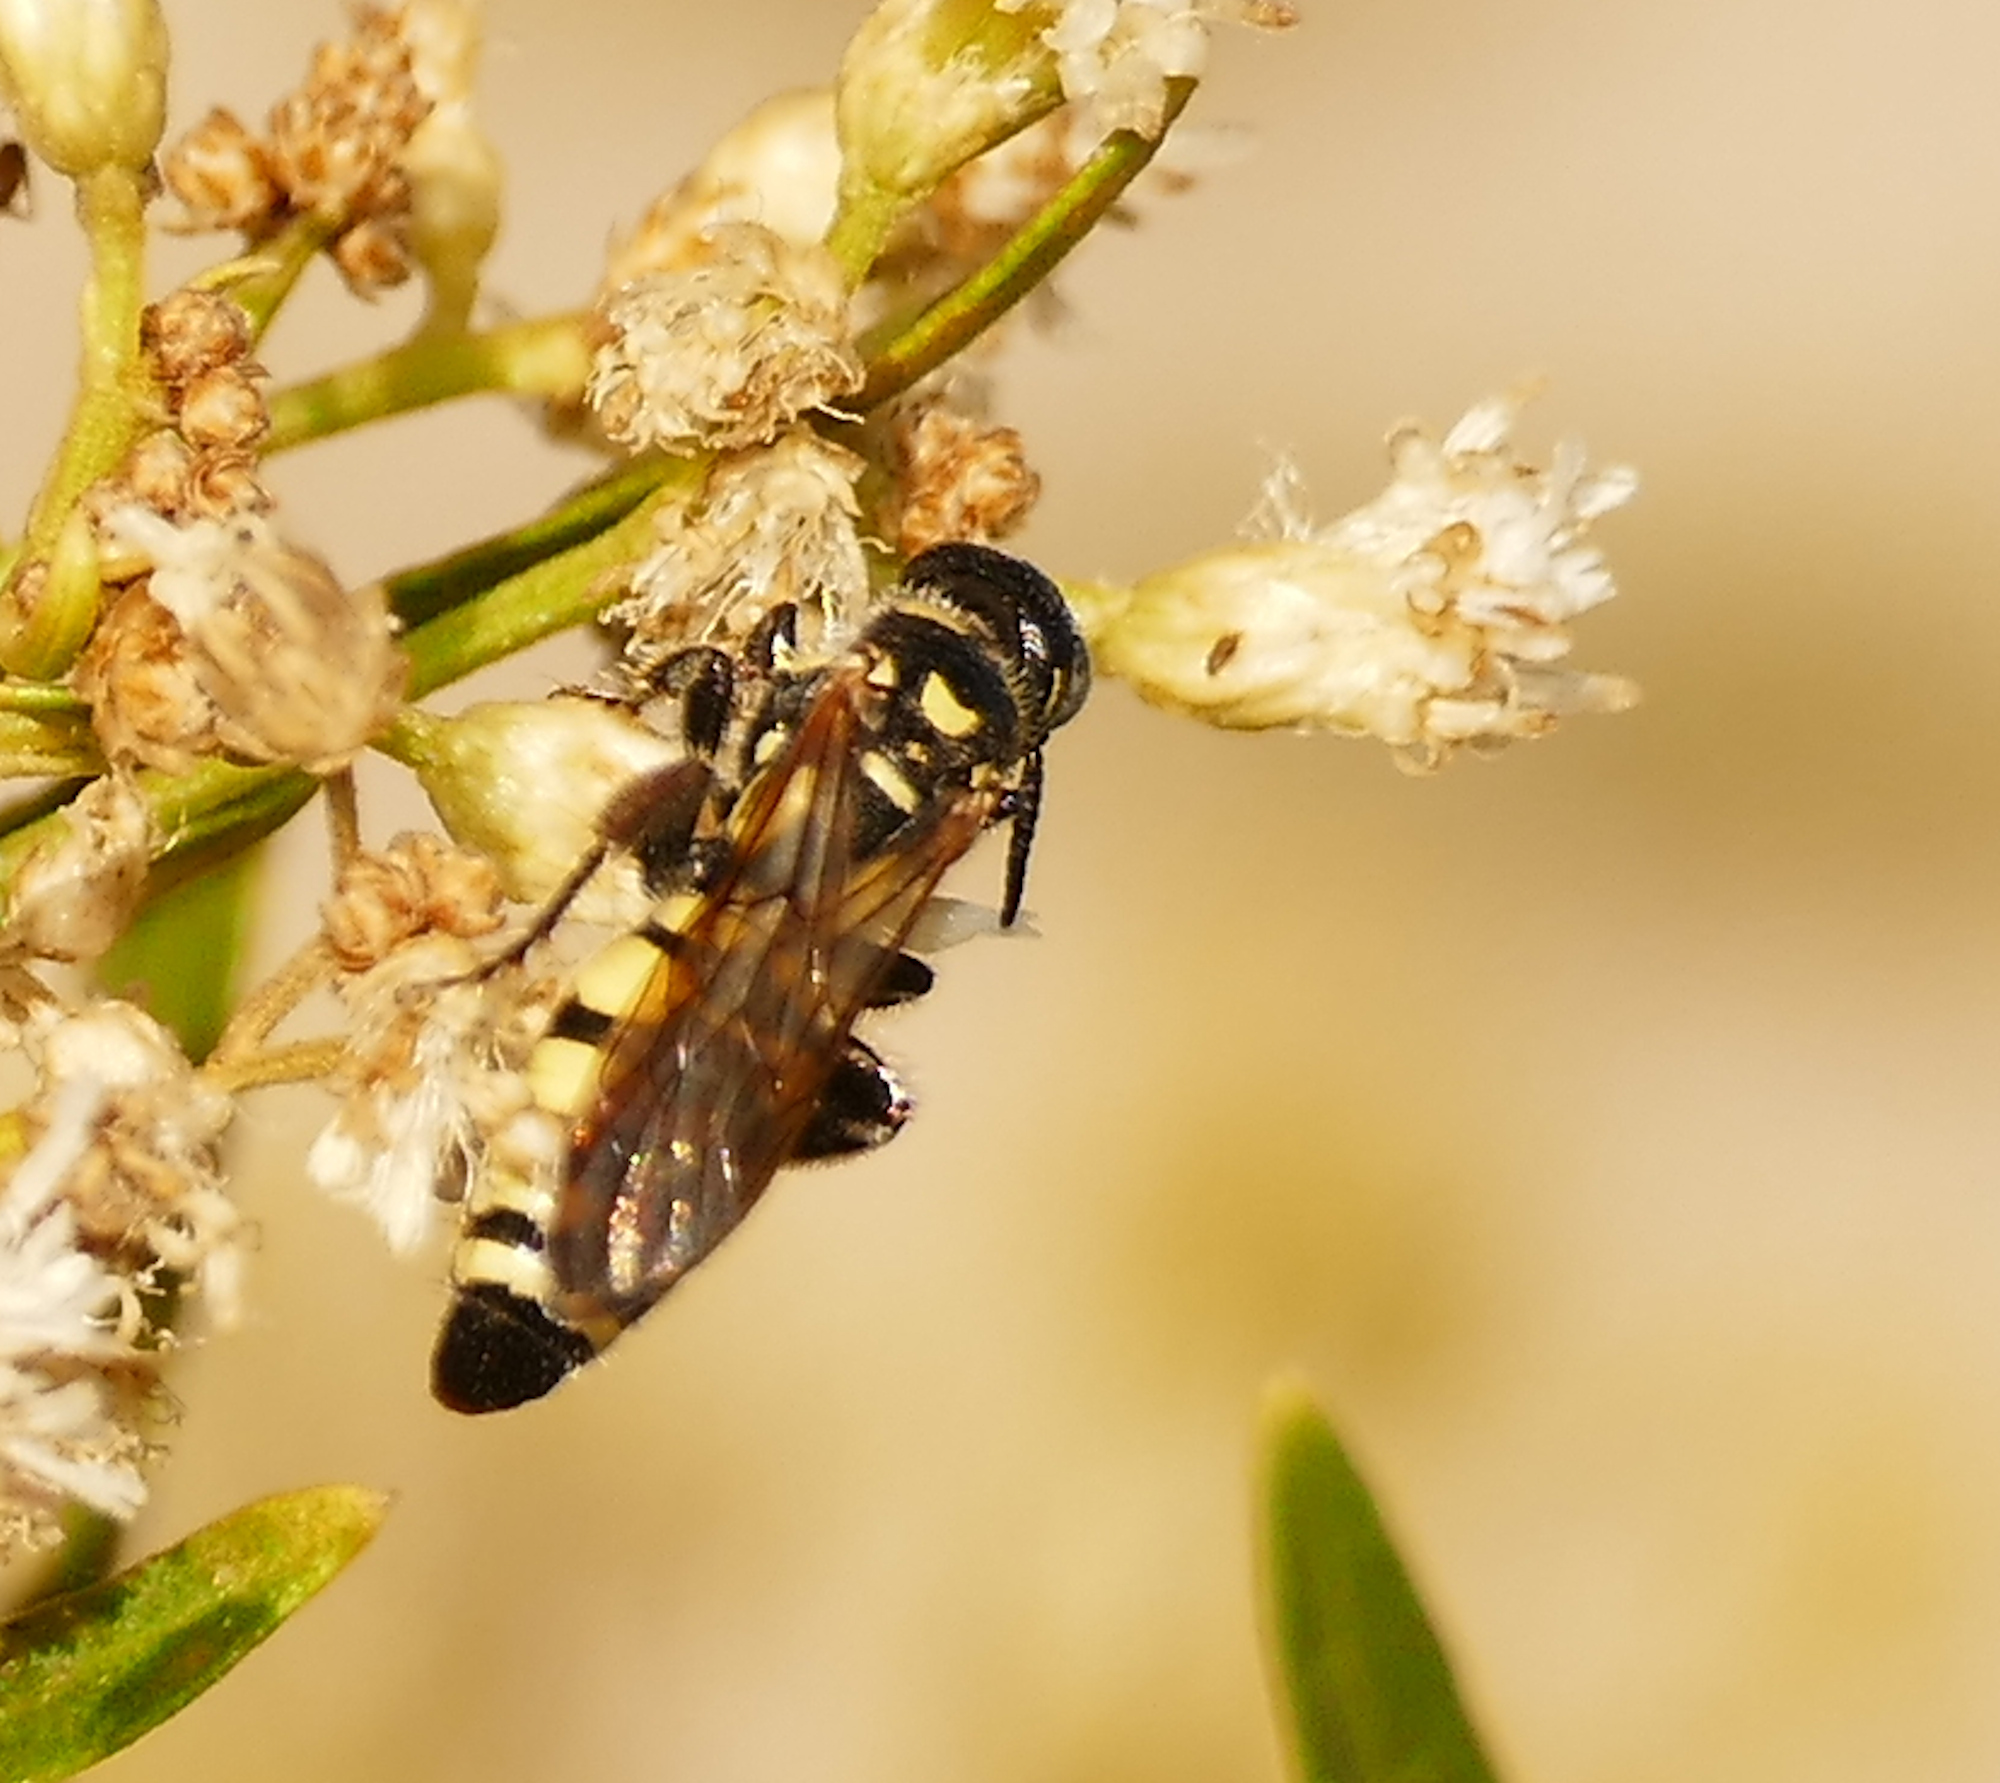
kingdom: Animalia
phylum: Arthropoda
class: Insecta
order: Hymenoptera
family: Tiphiidae
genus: Myzinum
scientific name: Myzinum frontalis
